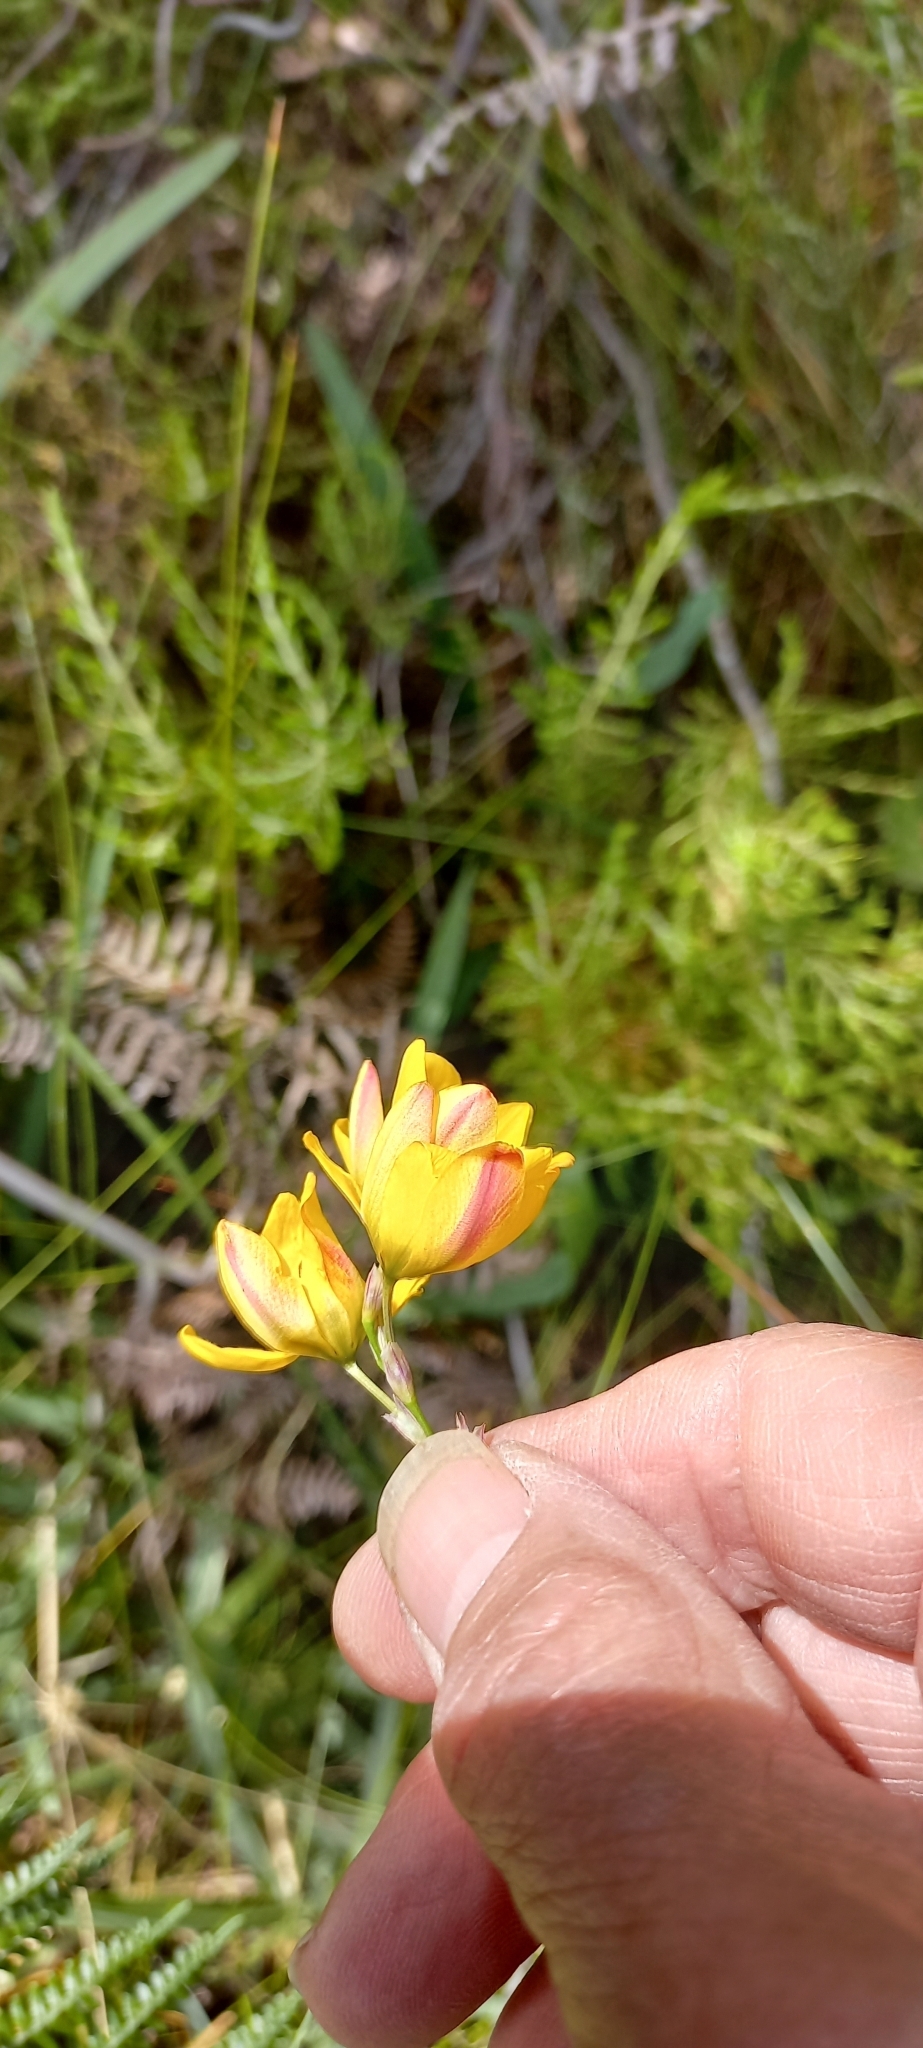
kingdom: Plantae
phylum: Tracheophyta
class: Liliopsida
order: Asparagales
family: Iridaceae
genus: Ixia
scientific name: Ixia sarmentosa
